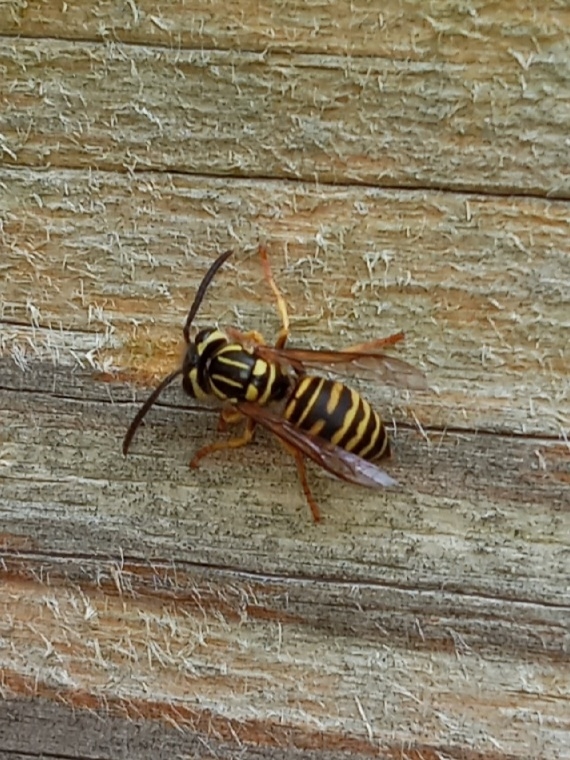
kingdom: Animalia
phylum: Arthropoda
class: Insecta
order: Hymenoptera
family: Vespidae
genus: Vespula
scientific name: Vespula squamosa
